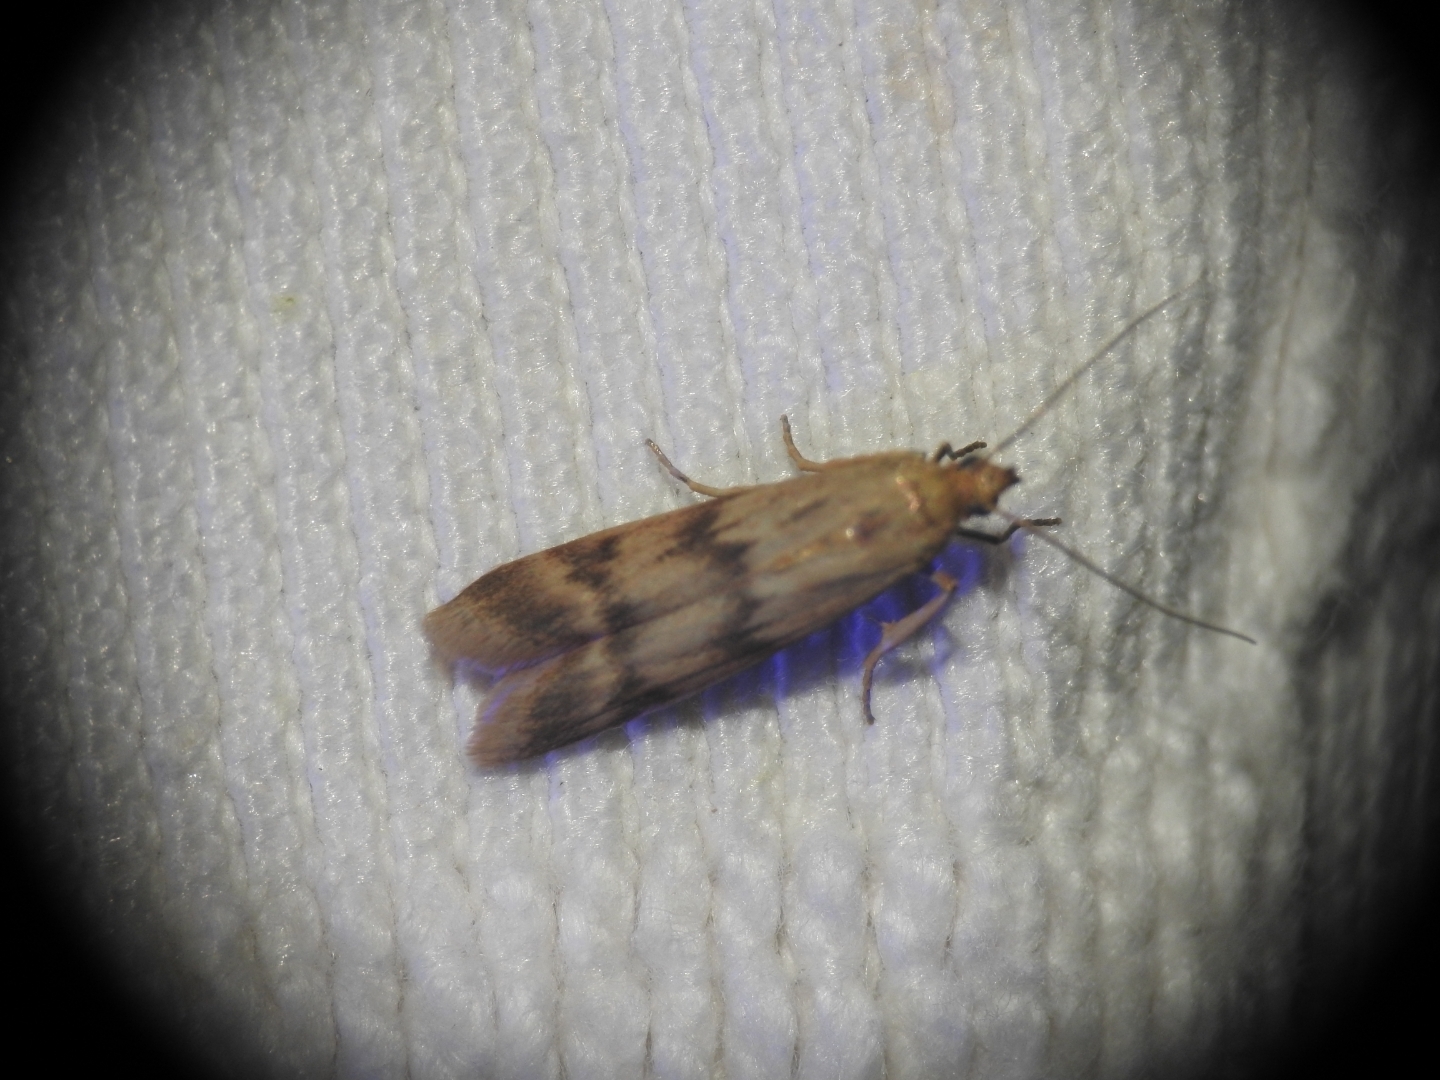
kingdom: Animalia
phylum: Arthropoda
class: Insecta
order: Lepidoptera
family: Pyralidae
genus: Homoeosoma
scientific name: Homoeosoma sinuella
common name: Twin-barred knot-horn
